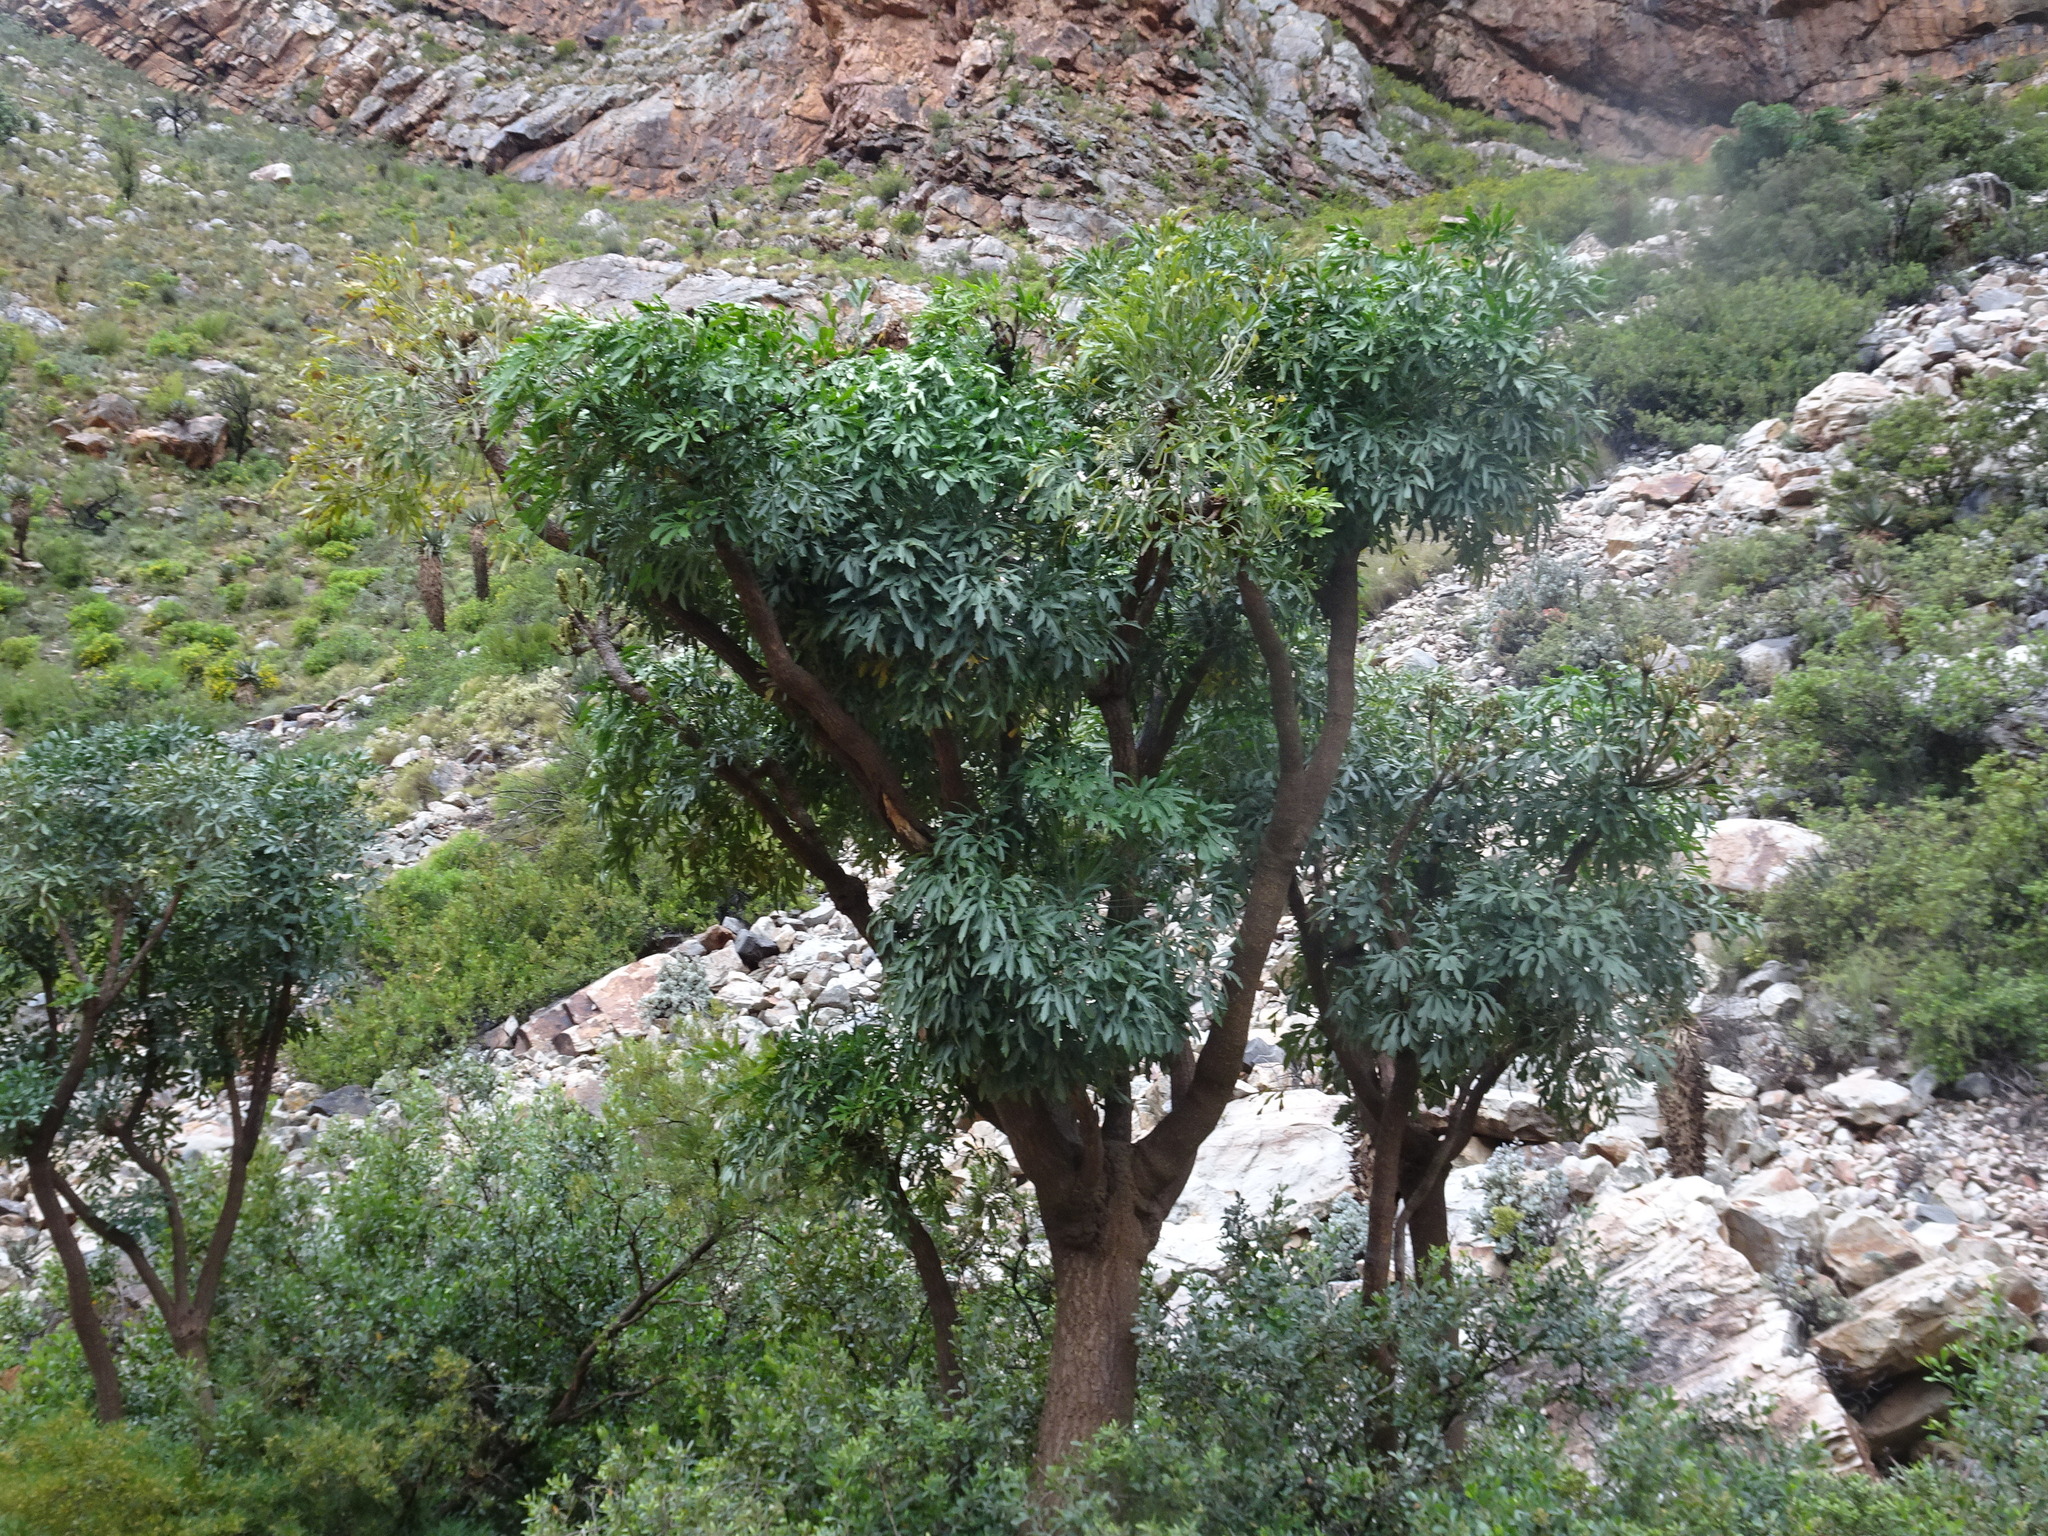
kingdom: Plantae
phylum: Tracheophyta
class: Magnoliopsida
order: Apiales
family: Araliaceae
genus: Cussonia
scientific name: Cussonia spicata
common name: Common cabbagetree
